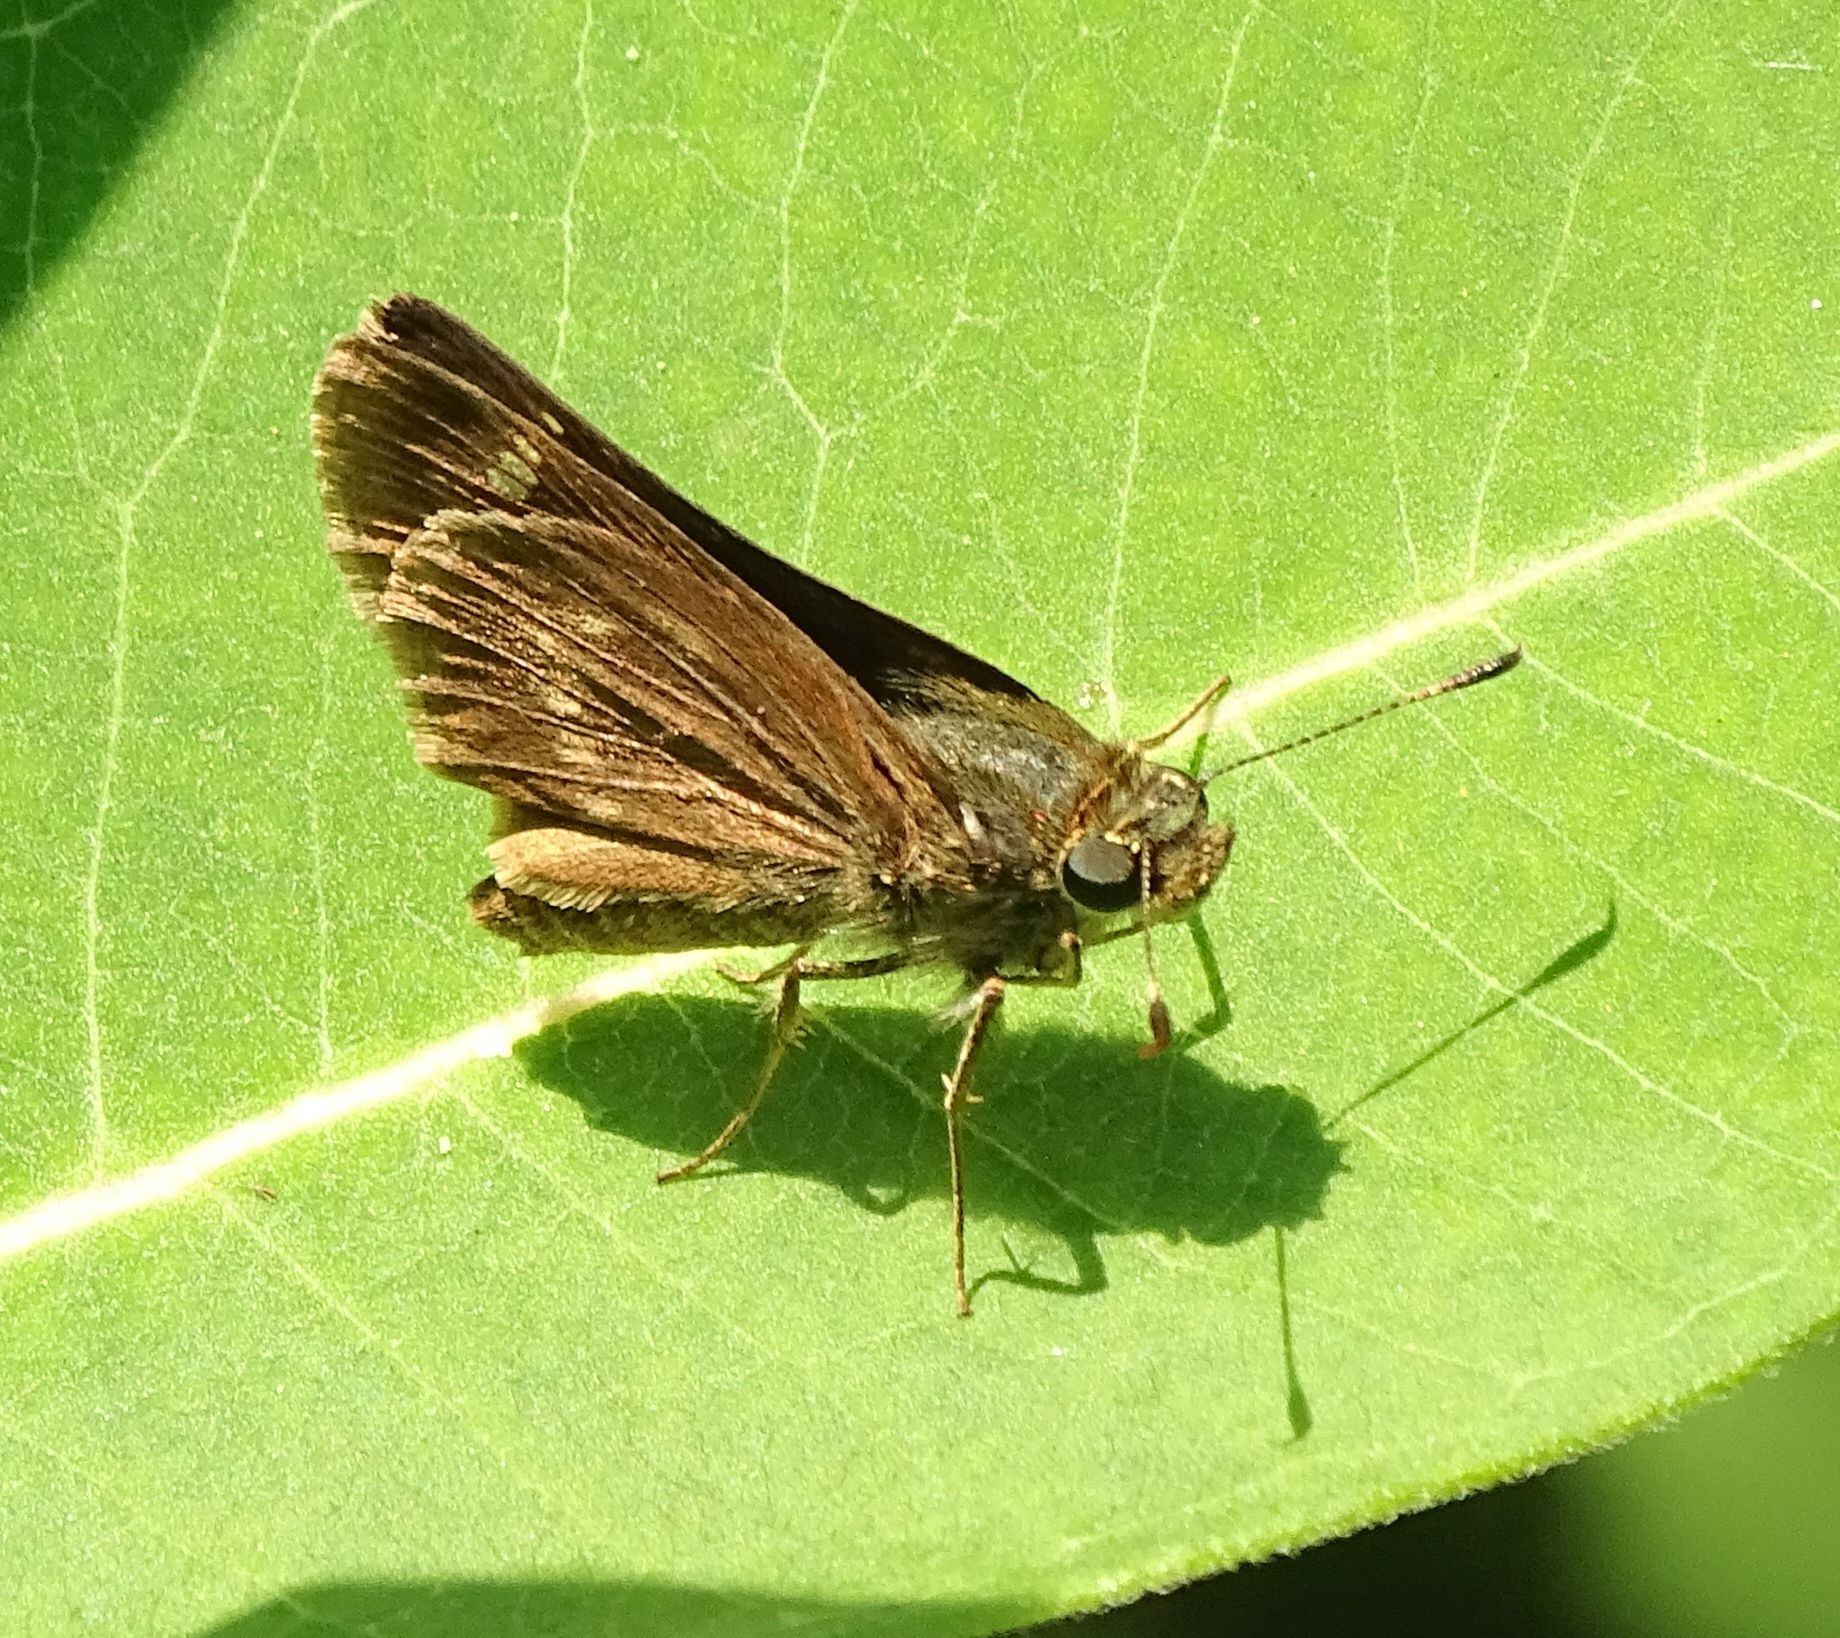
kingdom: Animalia
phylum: Arthropoda
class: Insecta
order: Lepidoptera
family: Hesperiidae
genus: Vernia
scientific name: Vernia verna
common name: Little glassywing
